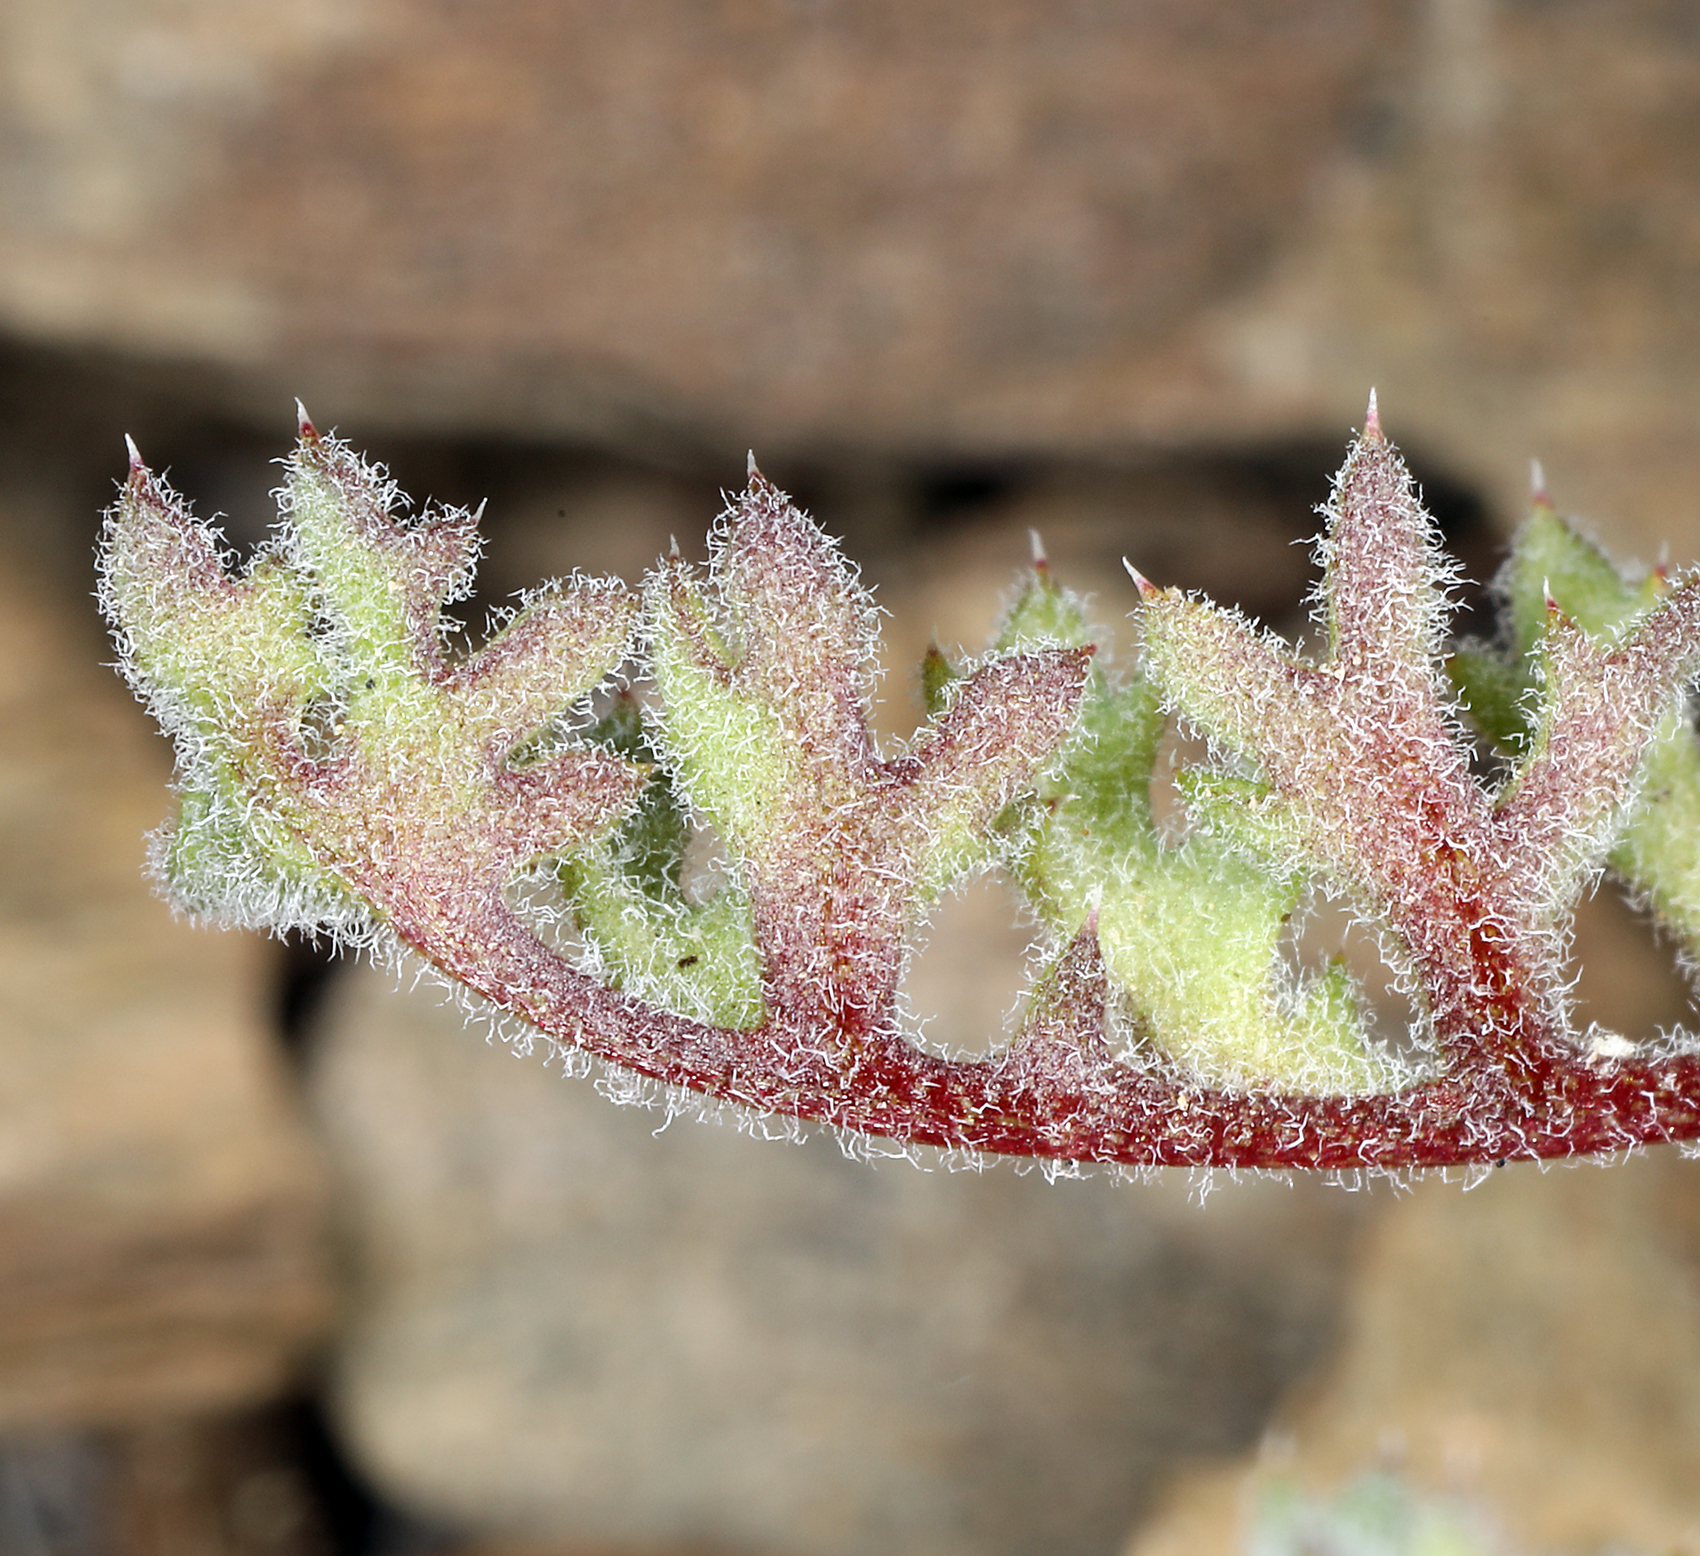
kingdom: Plantae
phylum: Tracheophyta
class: Magnoliopsida
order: Ericales
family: Polemoniaceae
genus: Gilia
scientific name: Gilia stellata
